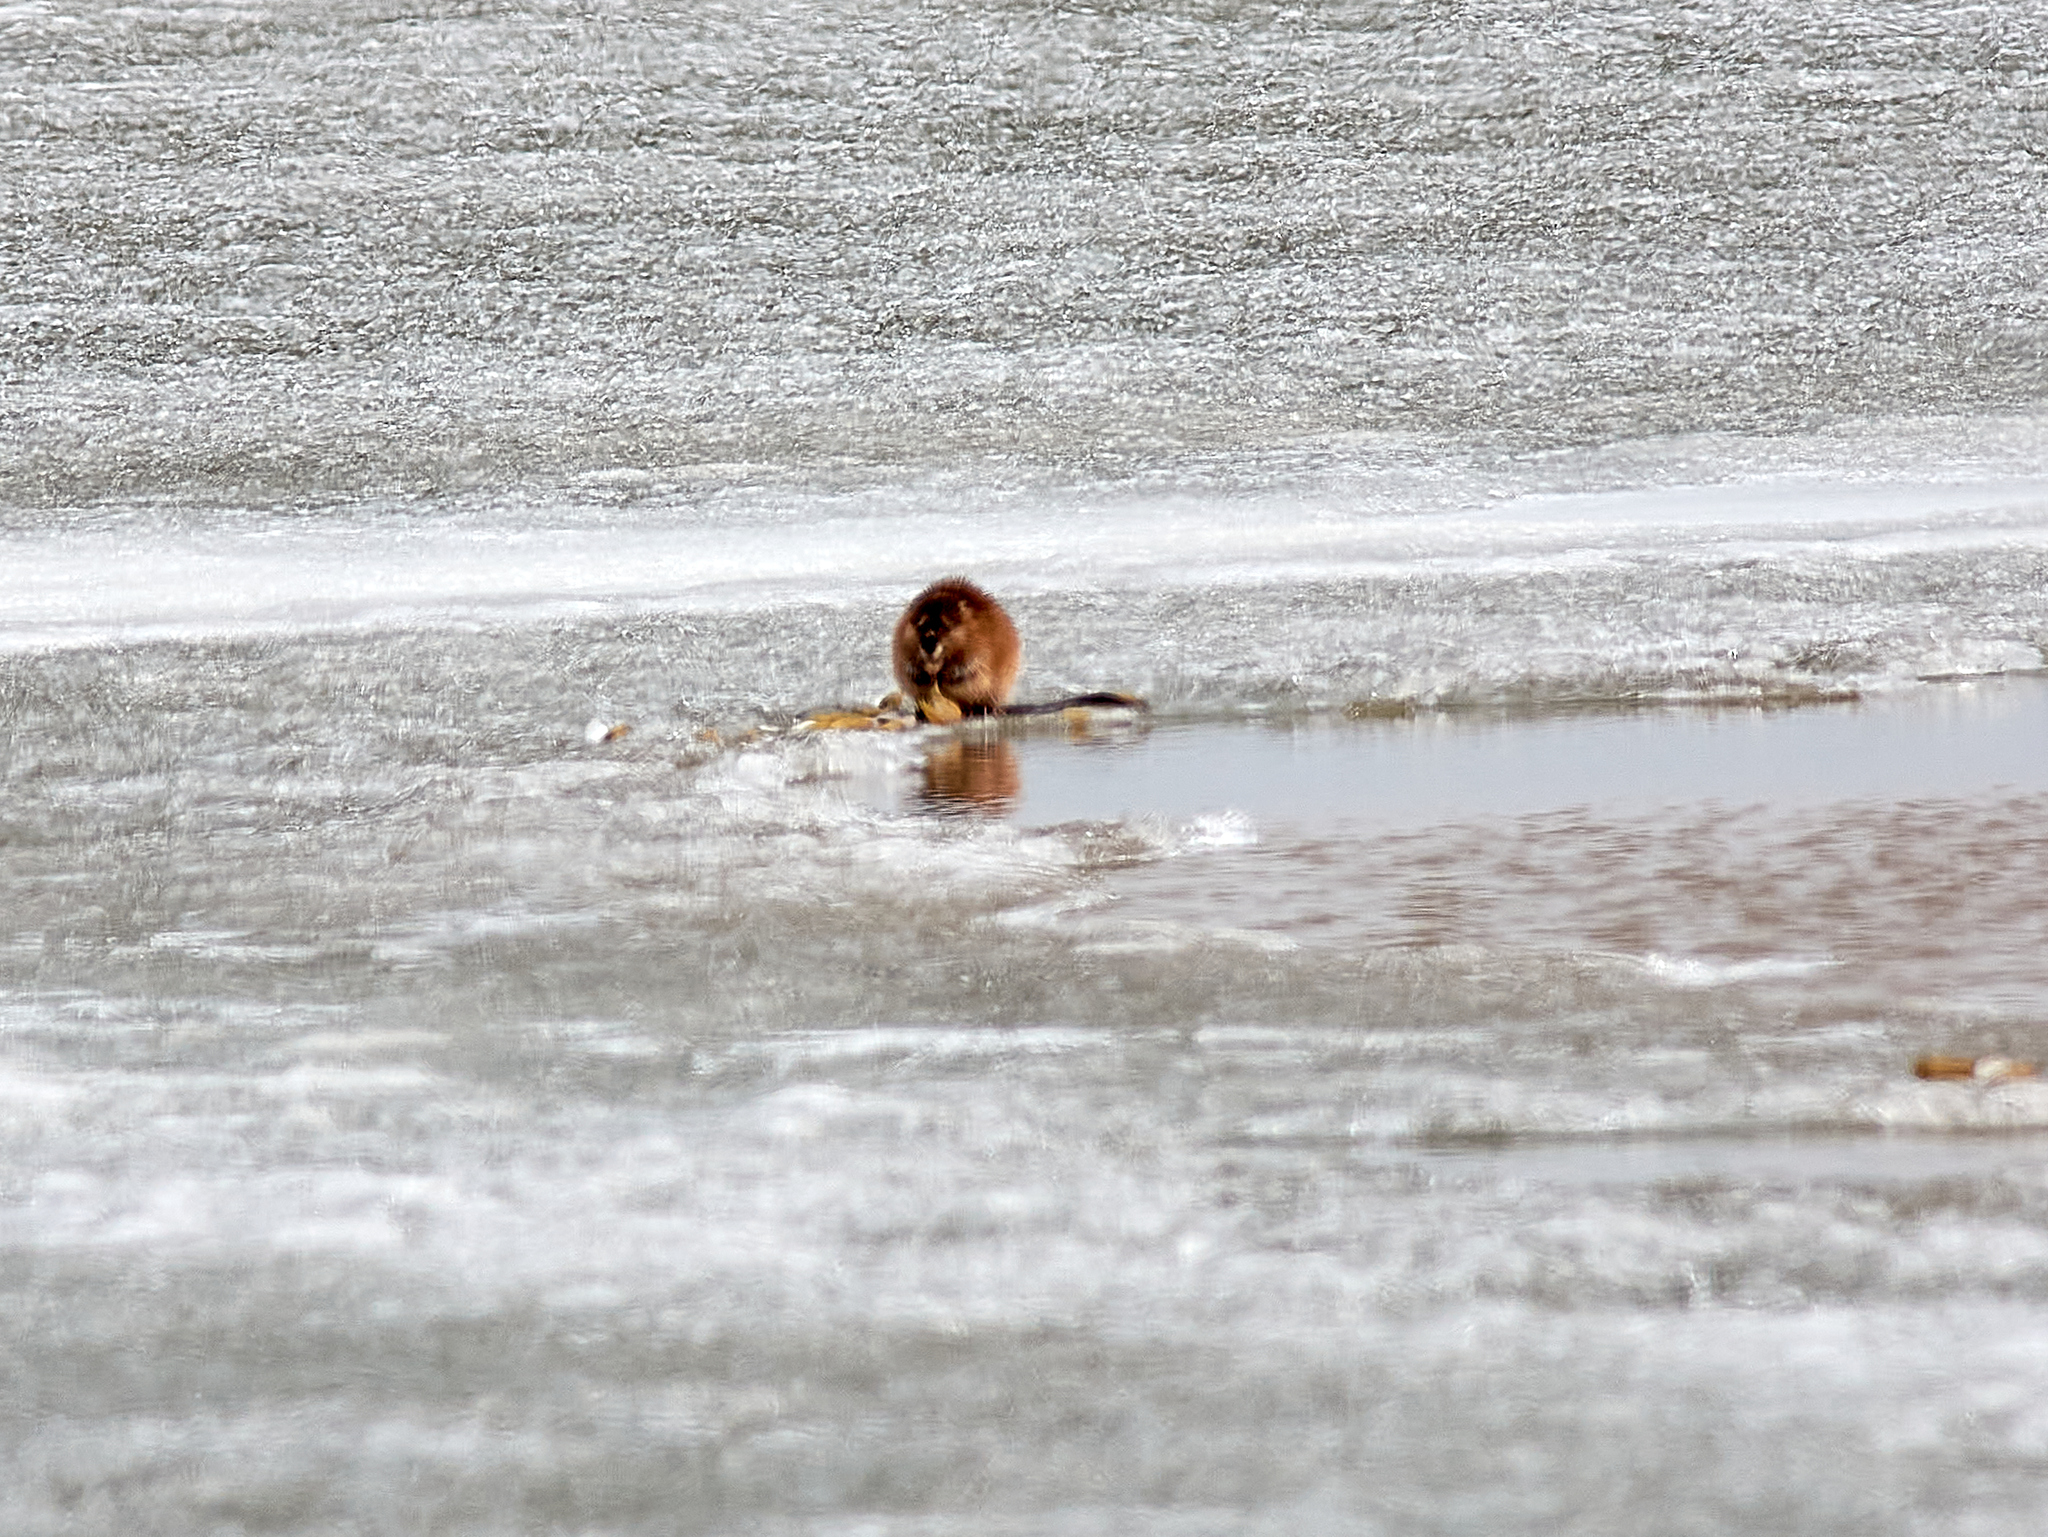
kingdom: Animalia
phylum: Chordata
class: Mammalia
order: Rodentia
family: Cricetidae
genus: Ondatra
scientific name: Ondatra zibethicus
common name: Muskrat
